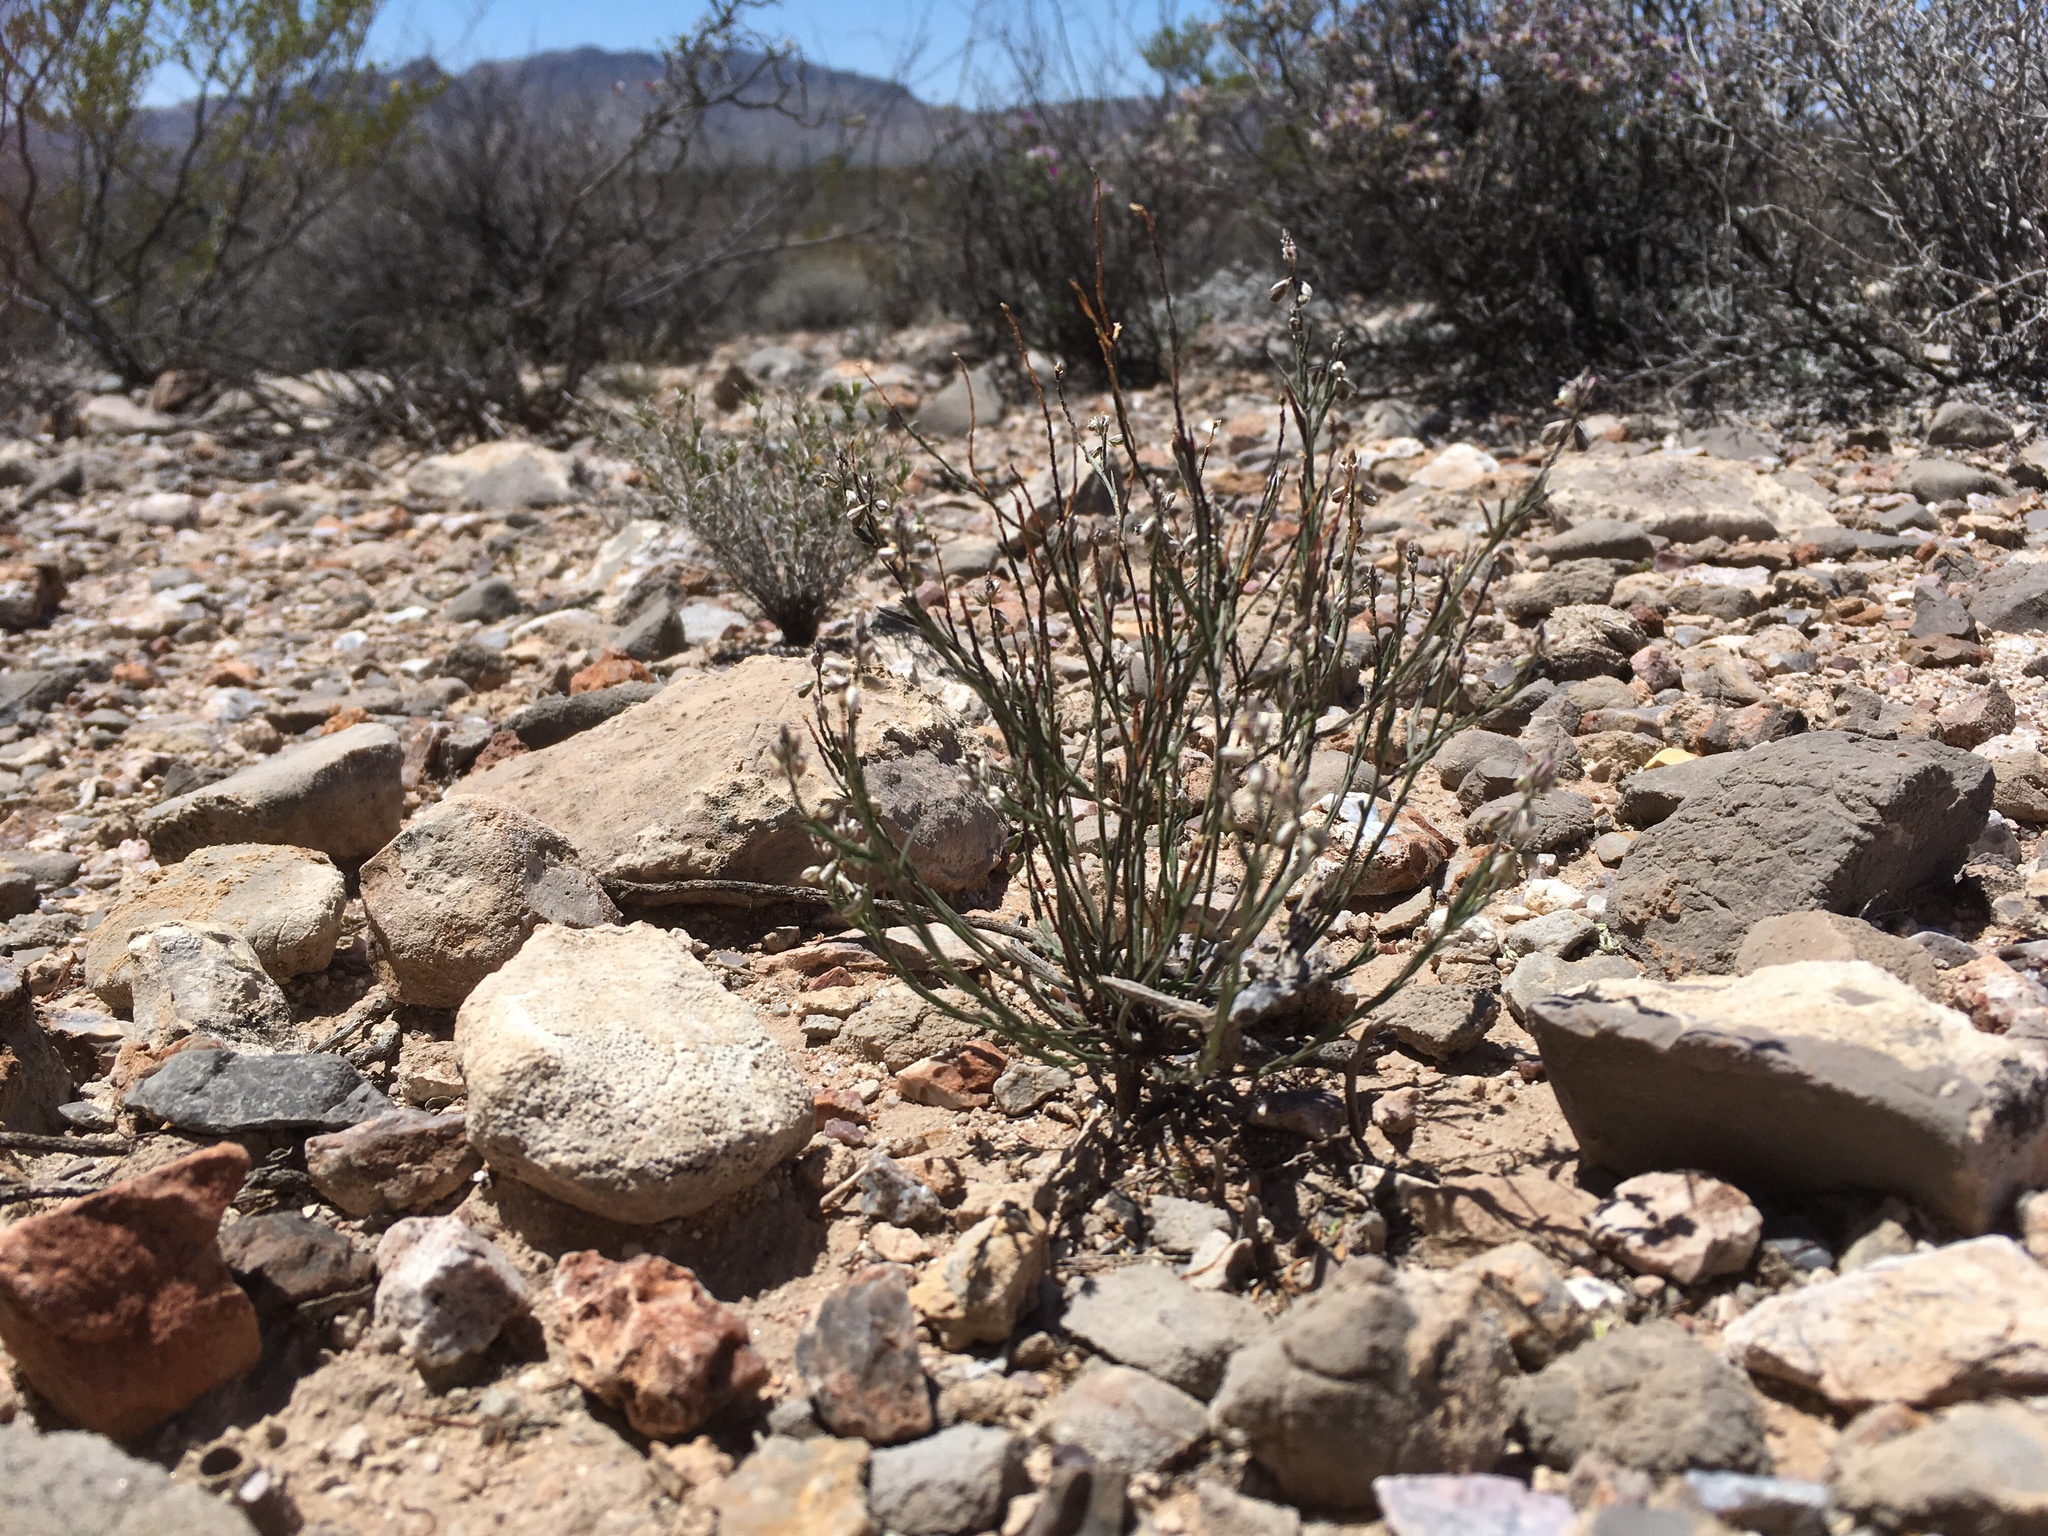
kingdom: Plantae
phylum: Tracheophyta
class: Magnoliopsida
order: Fabales
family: Polygalaceae
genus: Polygala
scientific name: Polygala scoparioides
